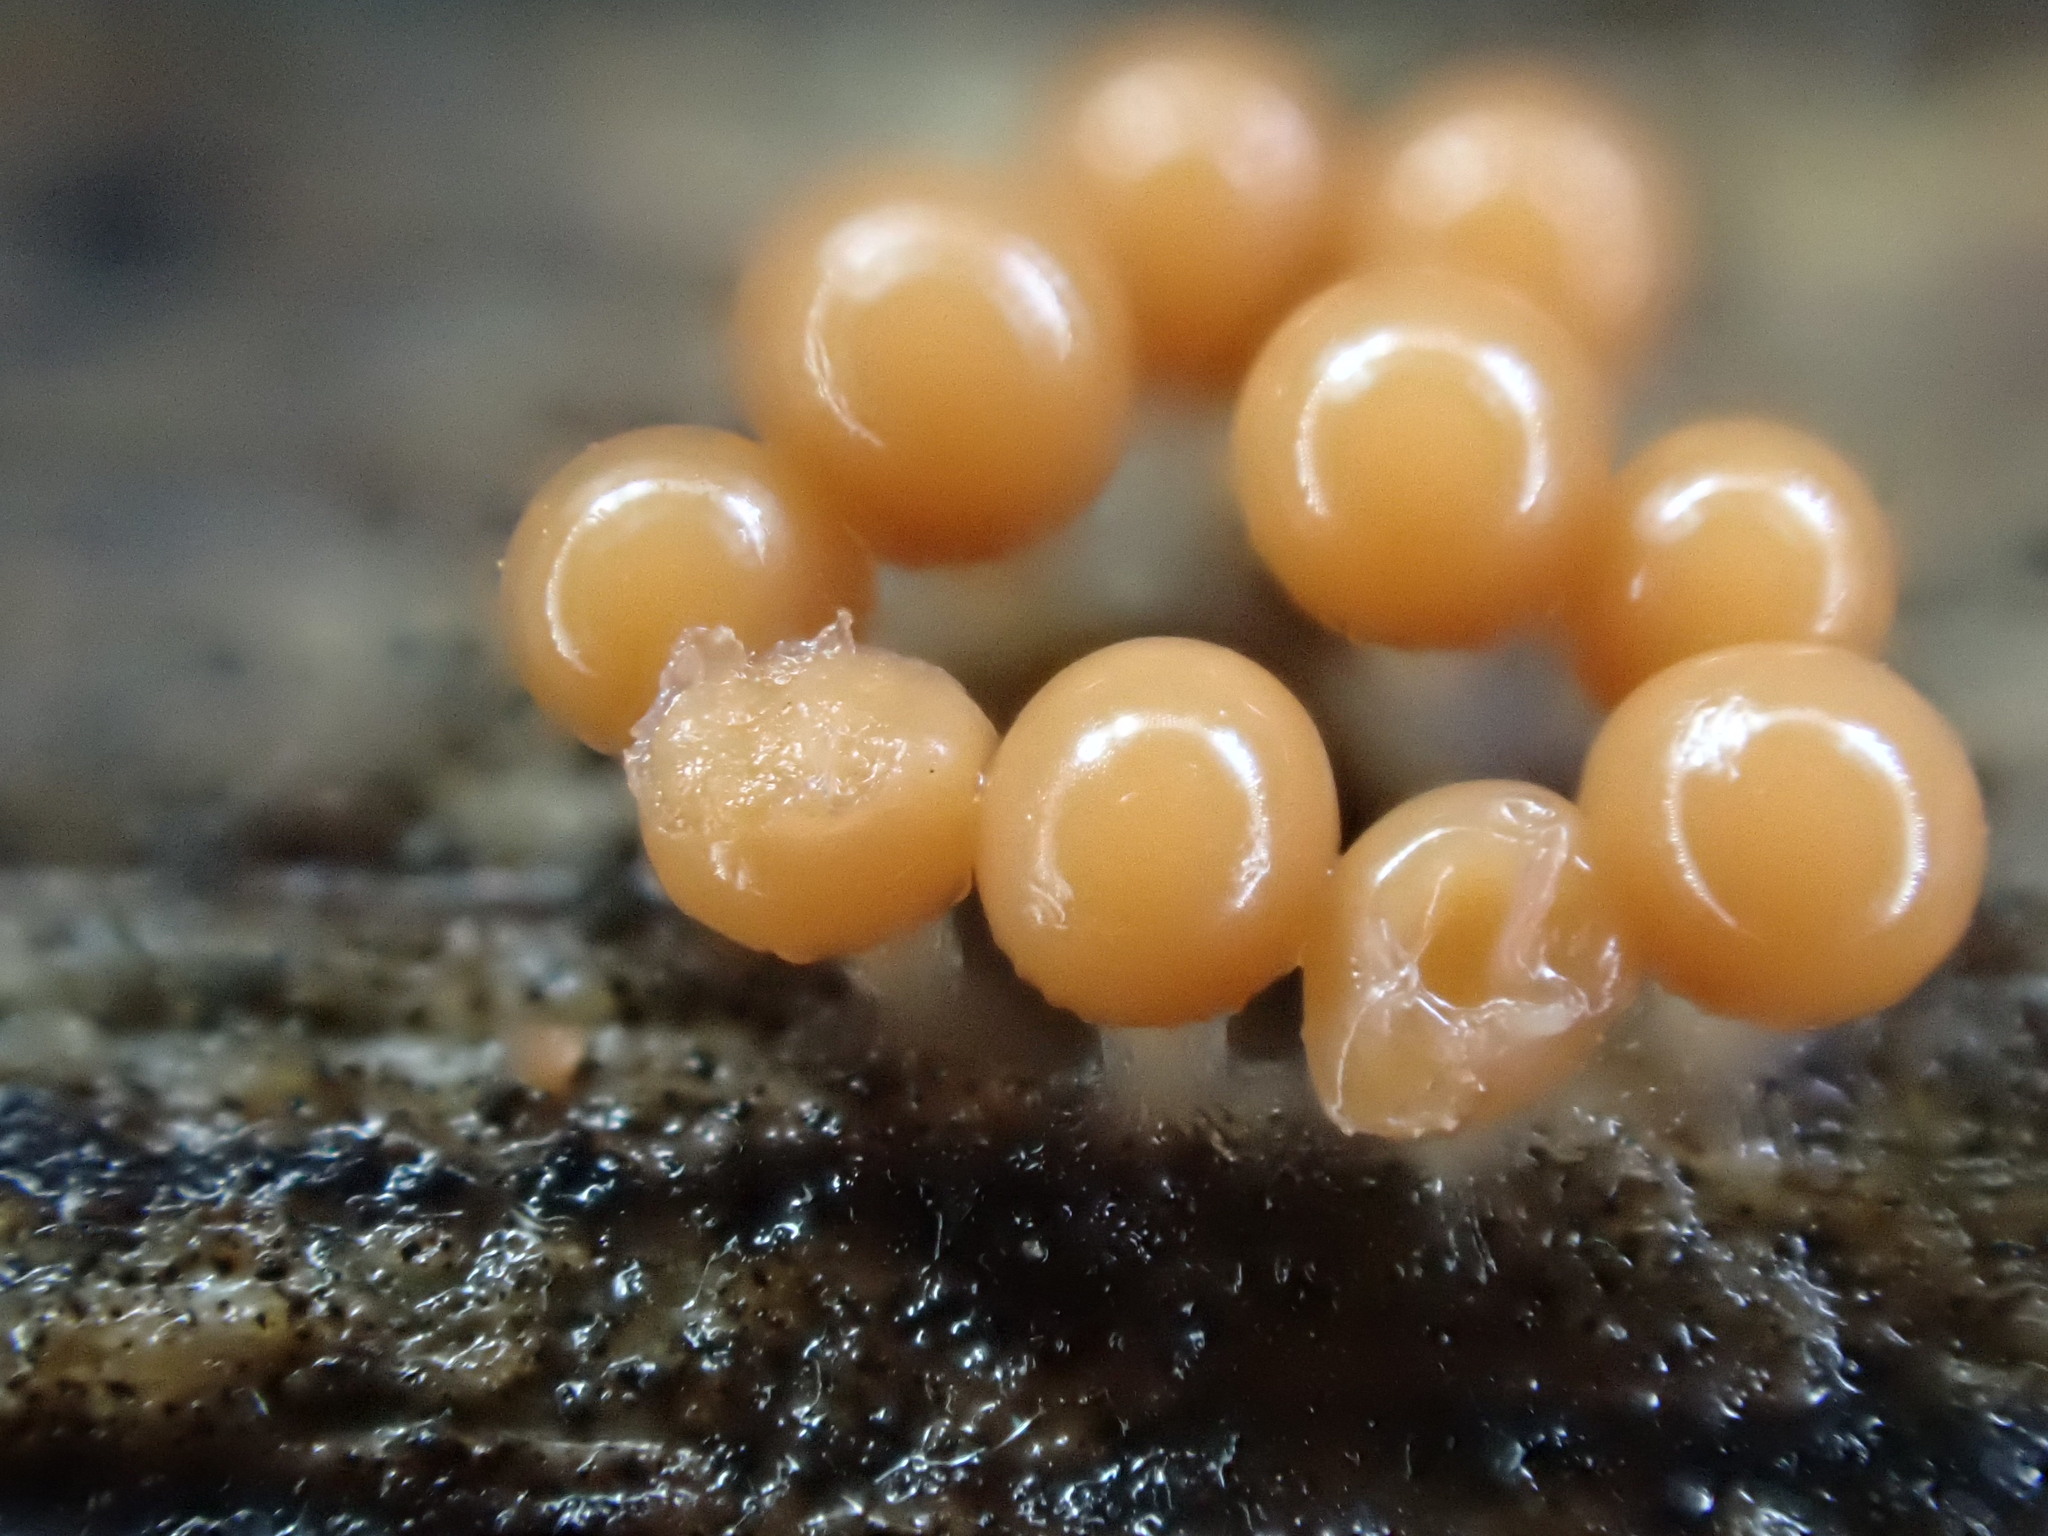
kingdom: Protozoa
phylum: Mycetozoa
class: Myxomycetes
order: Trichiales
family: Arcyriaceae
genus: Hemitrichia
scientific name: Hemitrichia decipiens
